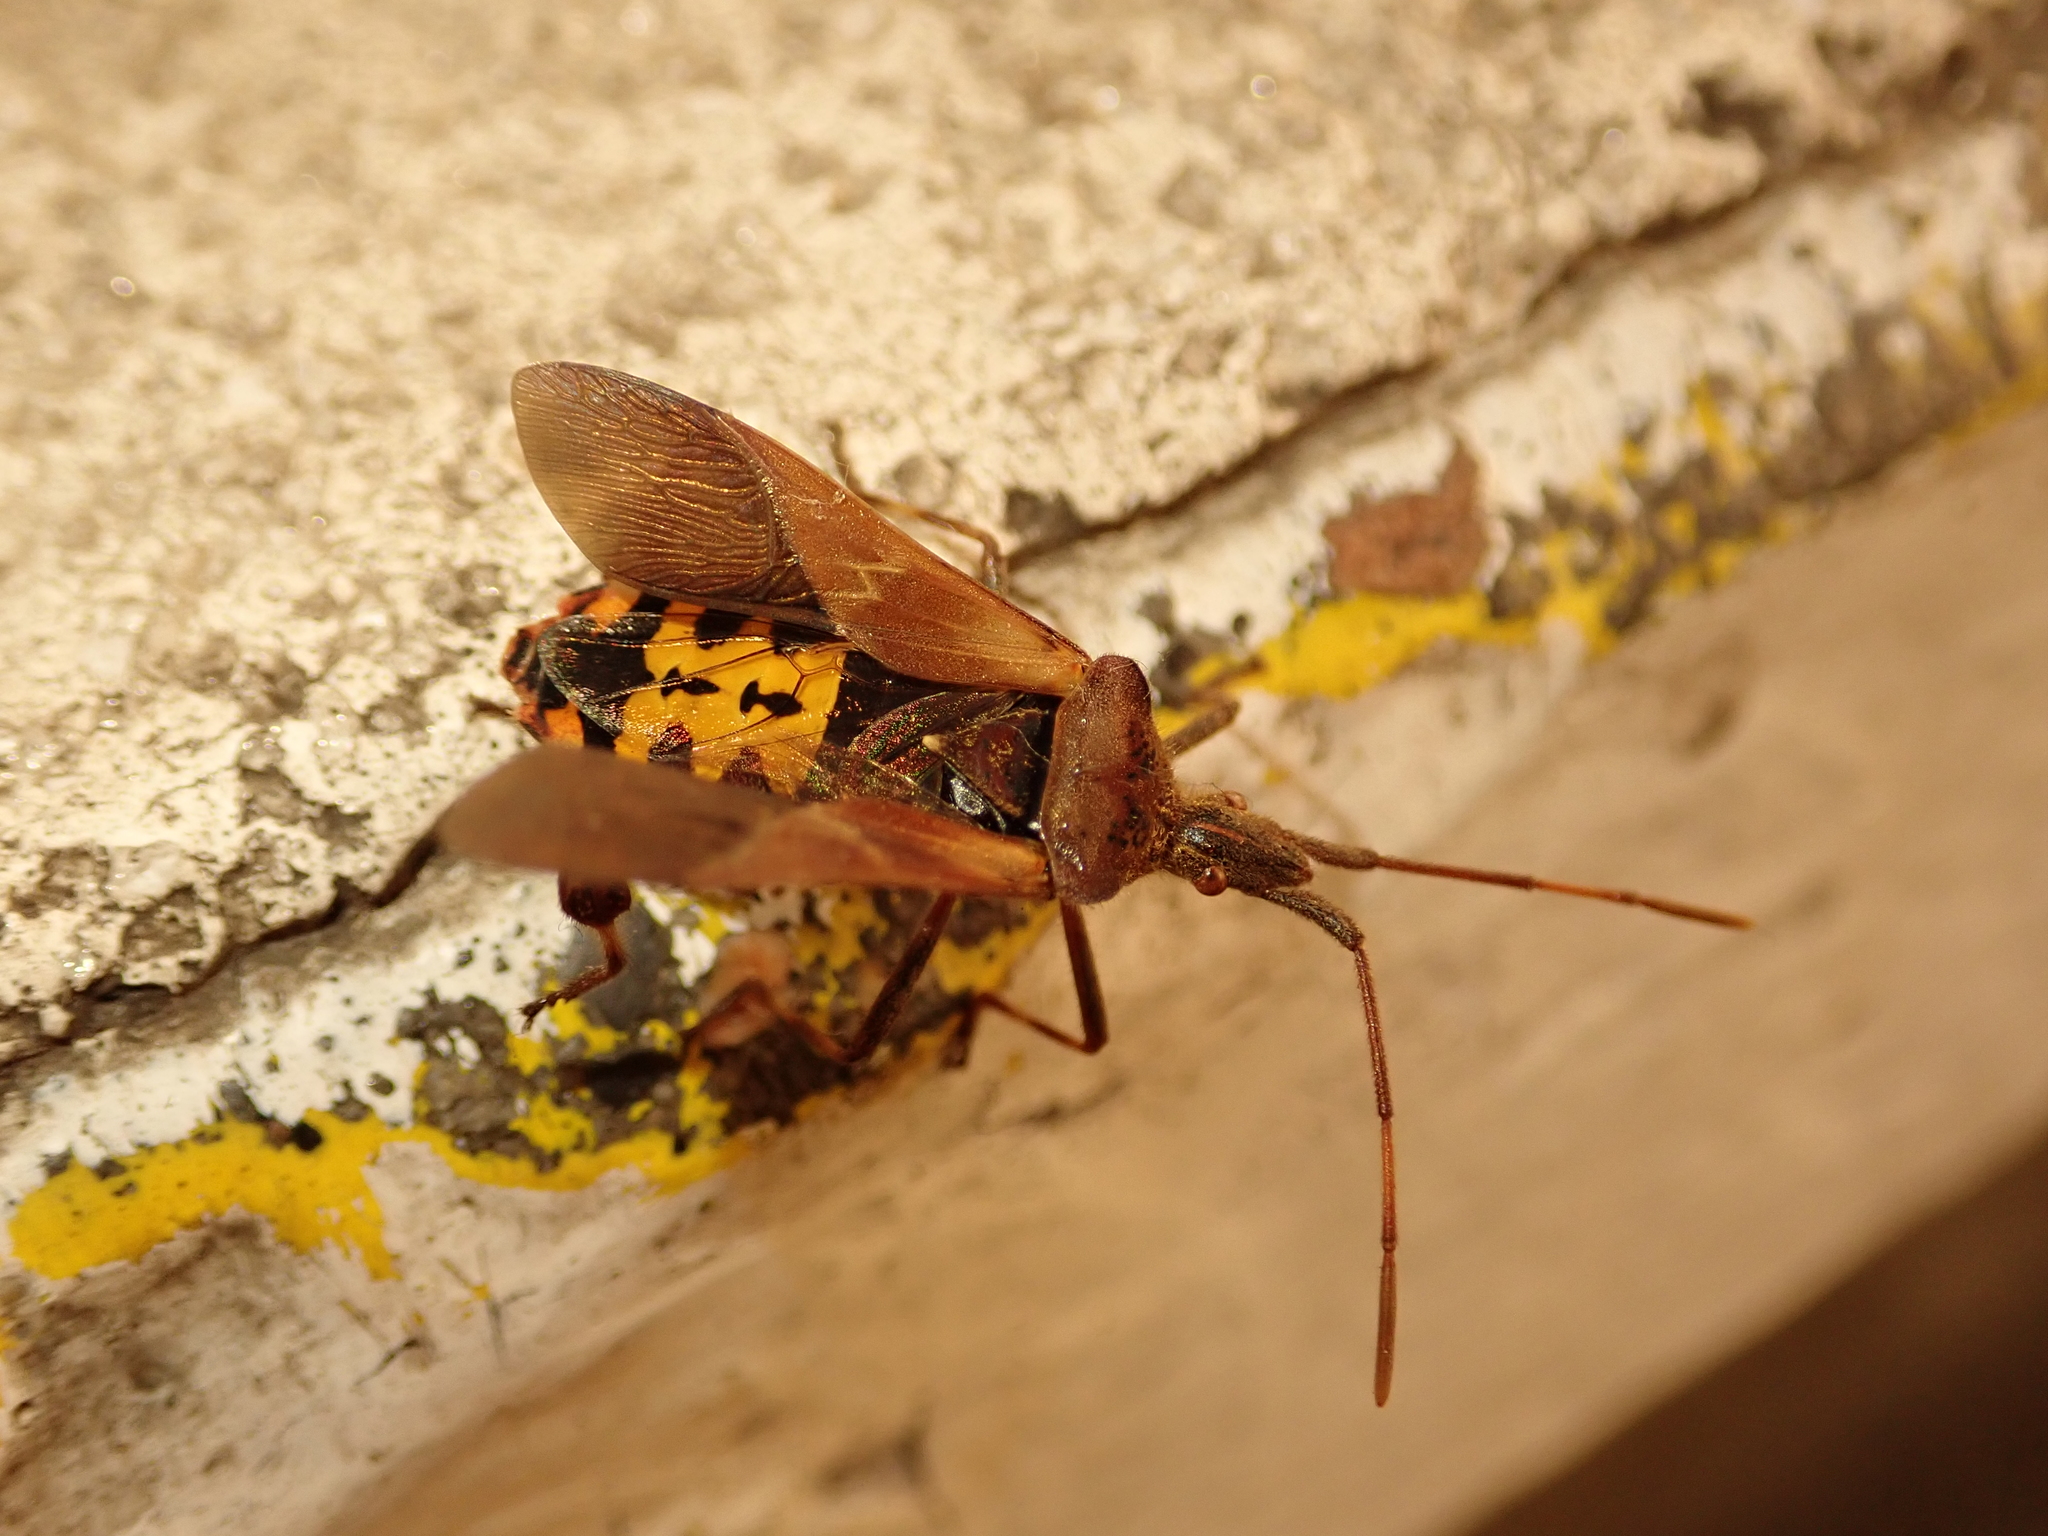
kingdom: Animalia
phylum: Arthropoda
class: Insecta
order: Hemiptera
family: Coreidae
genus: Leptoglossus
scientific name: Leptoglossus occidentalis
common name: Western conifer-seed bug
